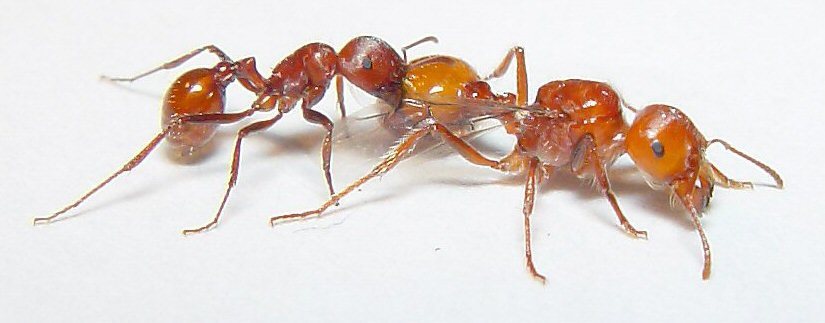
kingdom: Animalia
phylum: Arthropoda
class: Insecta
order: Hymenoptera
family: Formicidae
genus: Pogonomyrmex
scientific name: Pogonomyrmex tenuispinus
